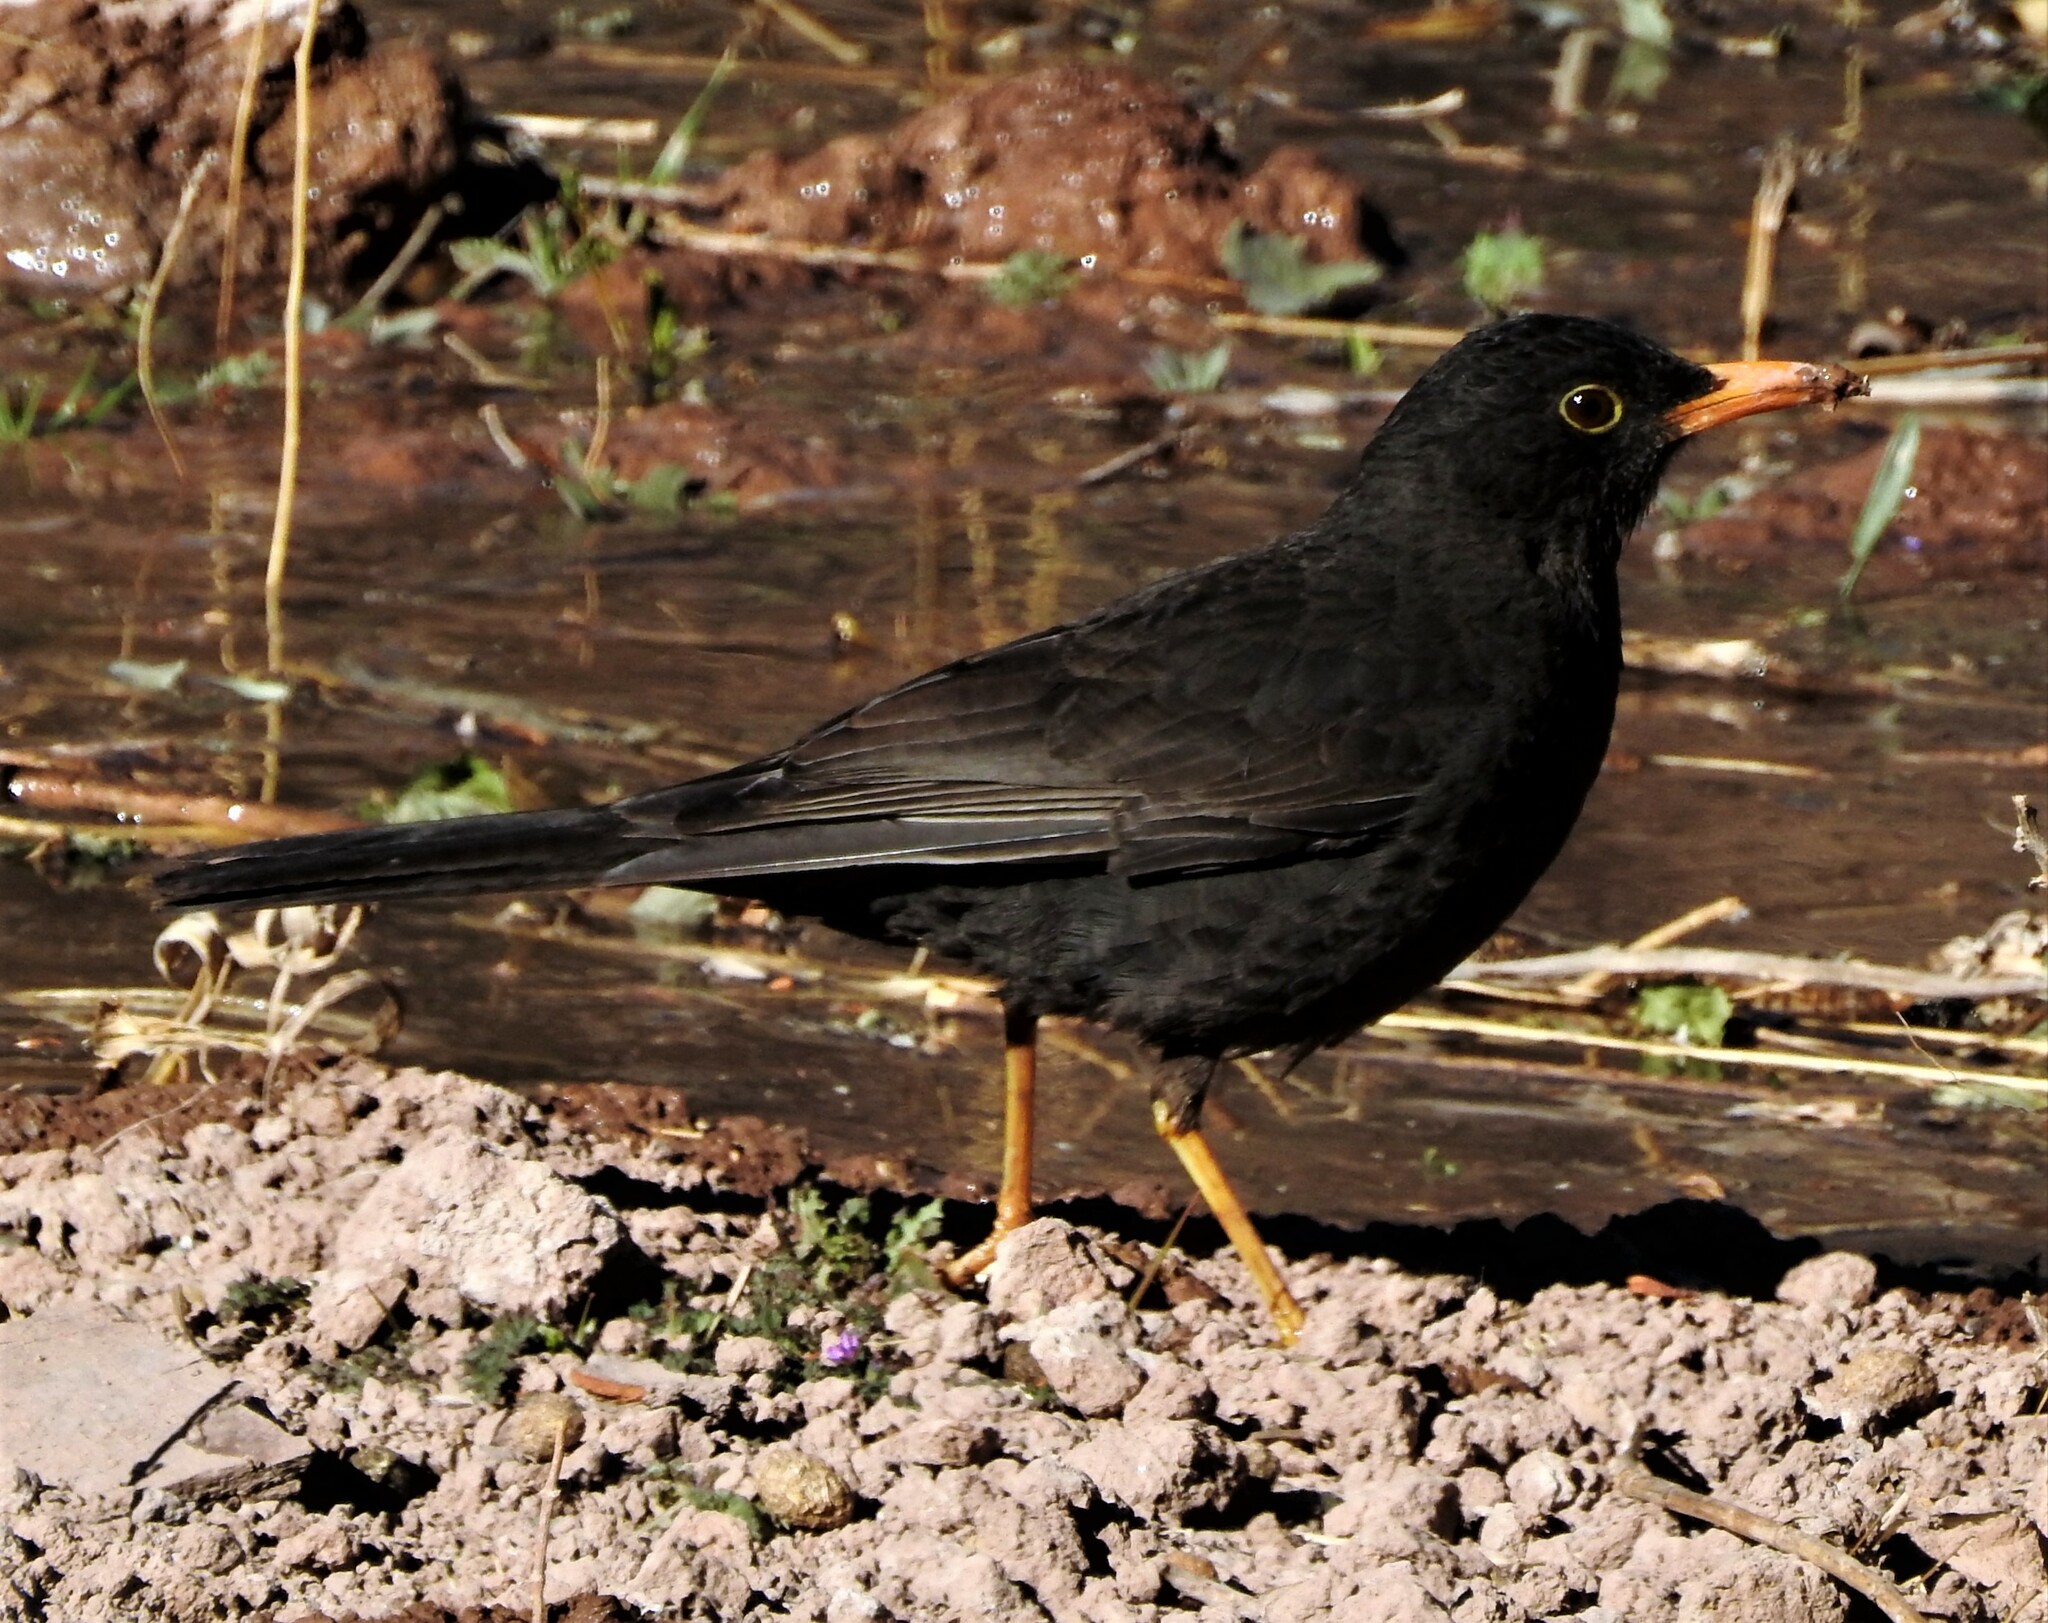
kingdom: Animalia
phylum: Chordata
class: Aves
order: Passeriformes
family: Turdidae
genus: Turdus
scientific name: Turdus chiguanco
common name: Chiguanco thrush
